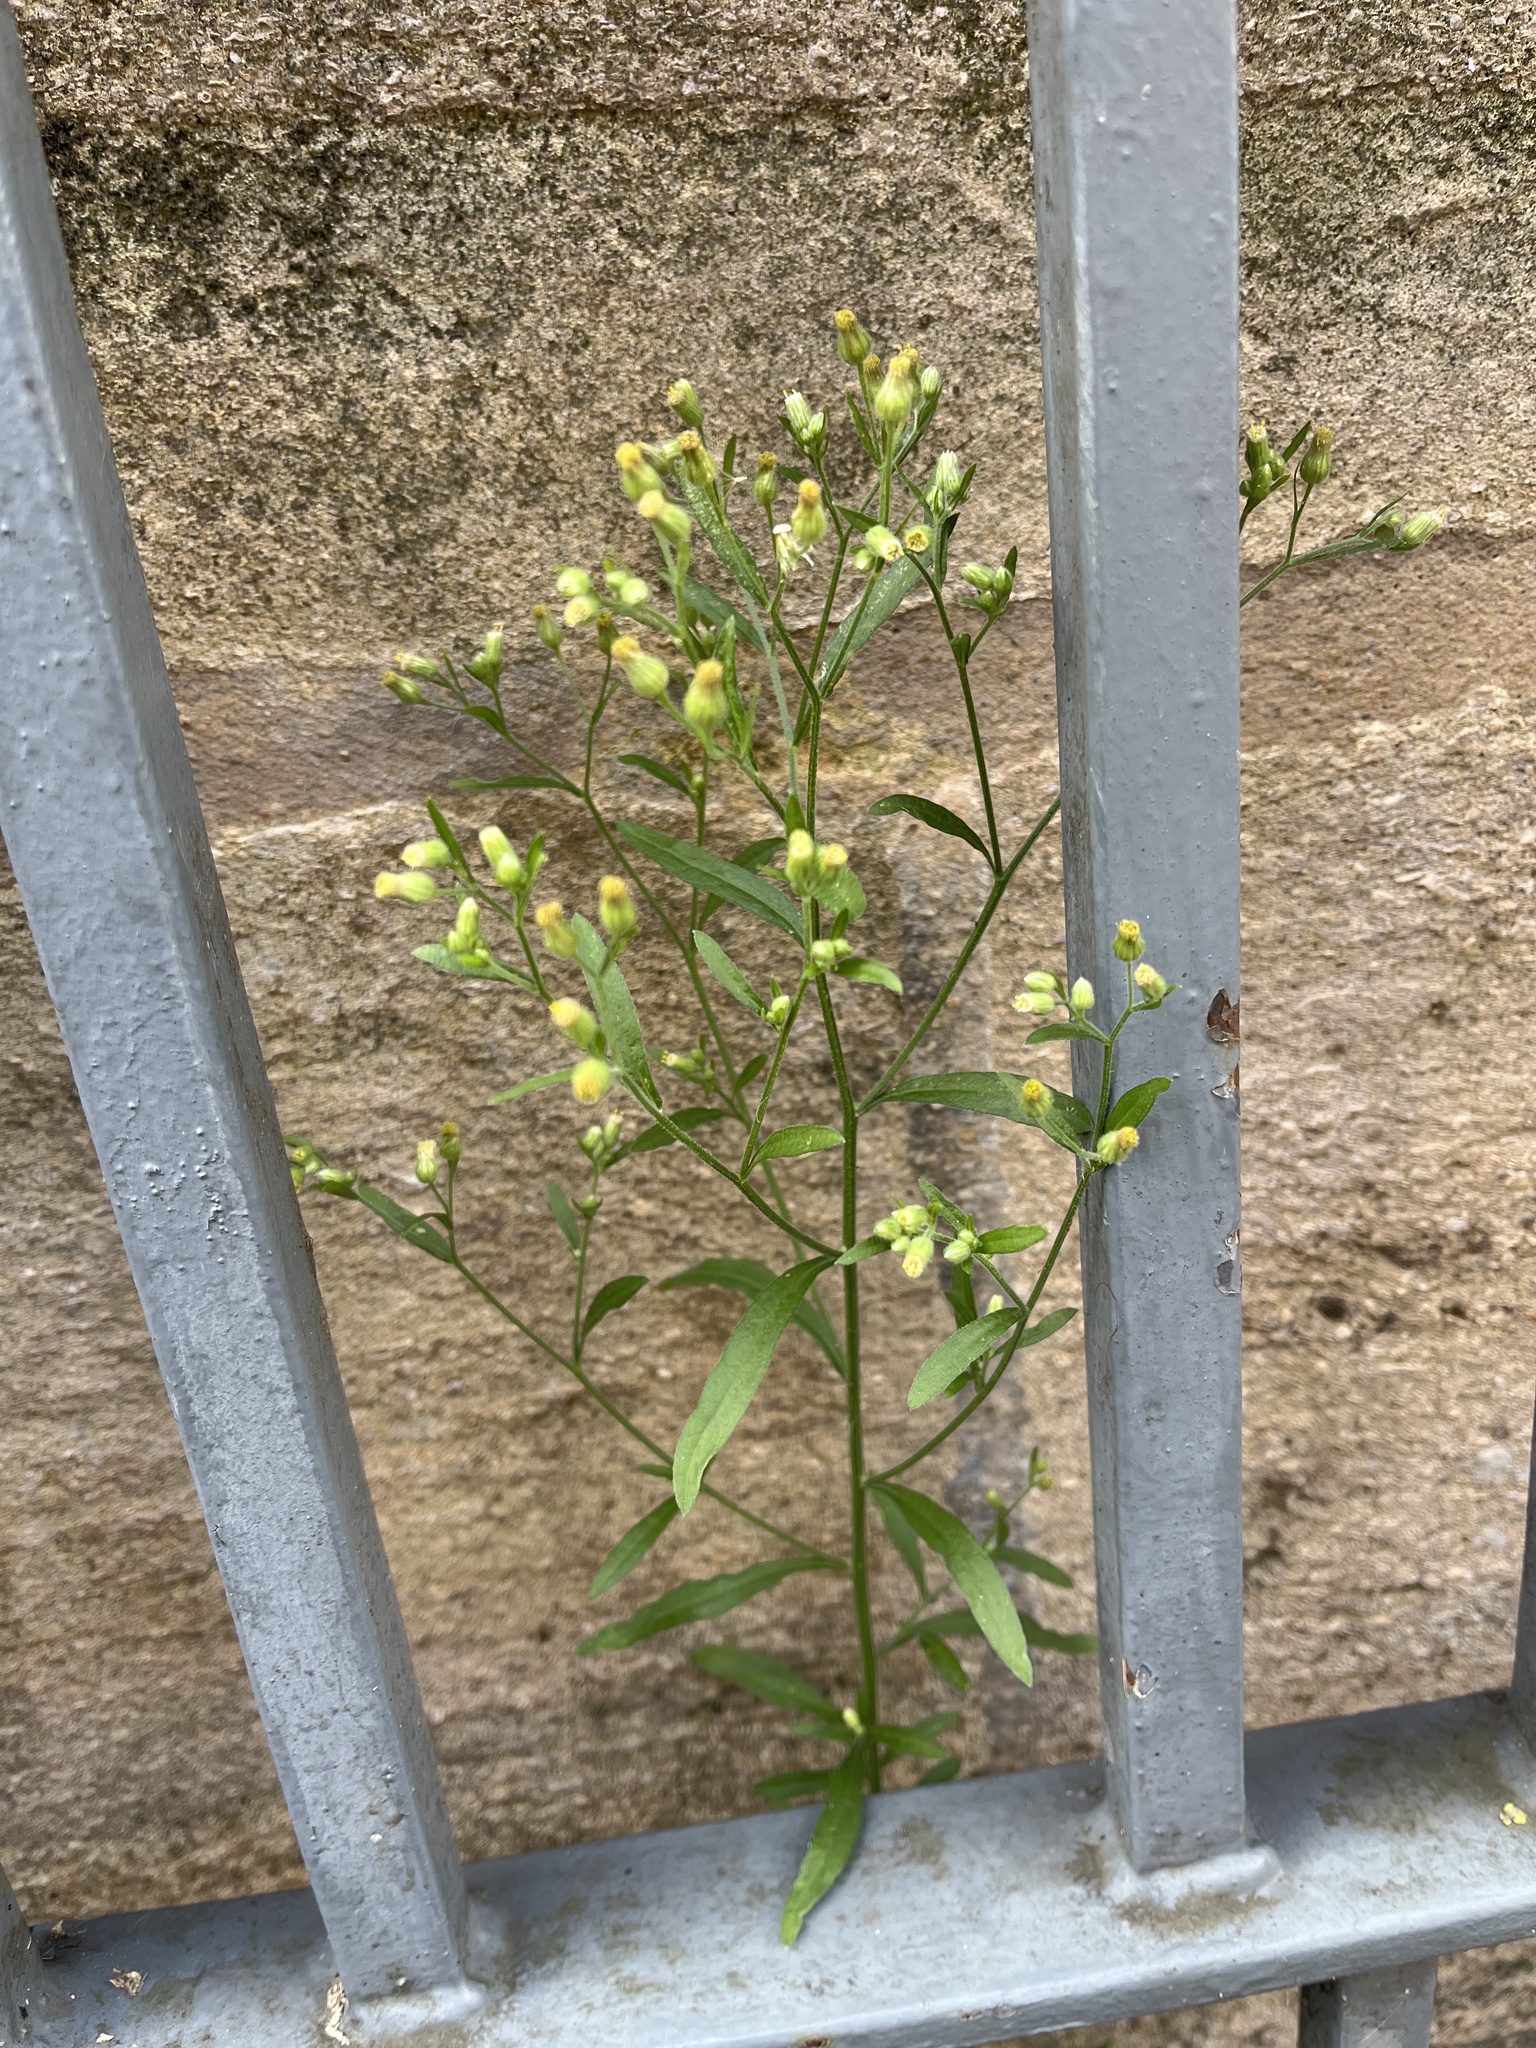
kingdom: Plantae
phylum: Tracheophyta
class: Magnoliopsida
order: Asterales
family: Asteraceae
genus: Erigeron
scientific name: Erigeron canadensis
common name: Canadian fleabane
